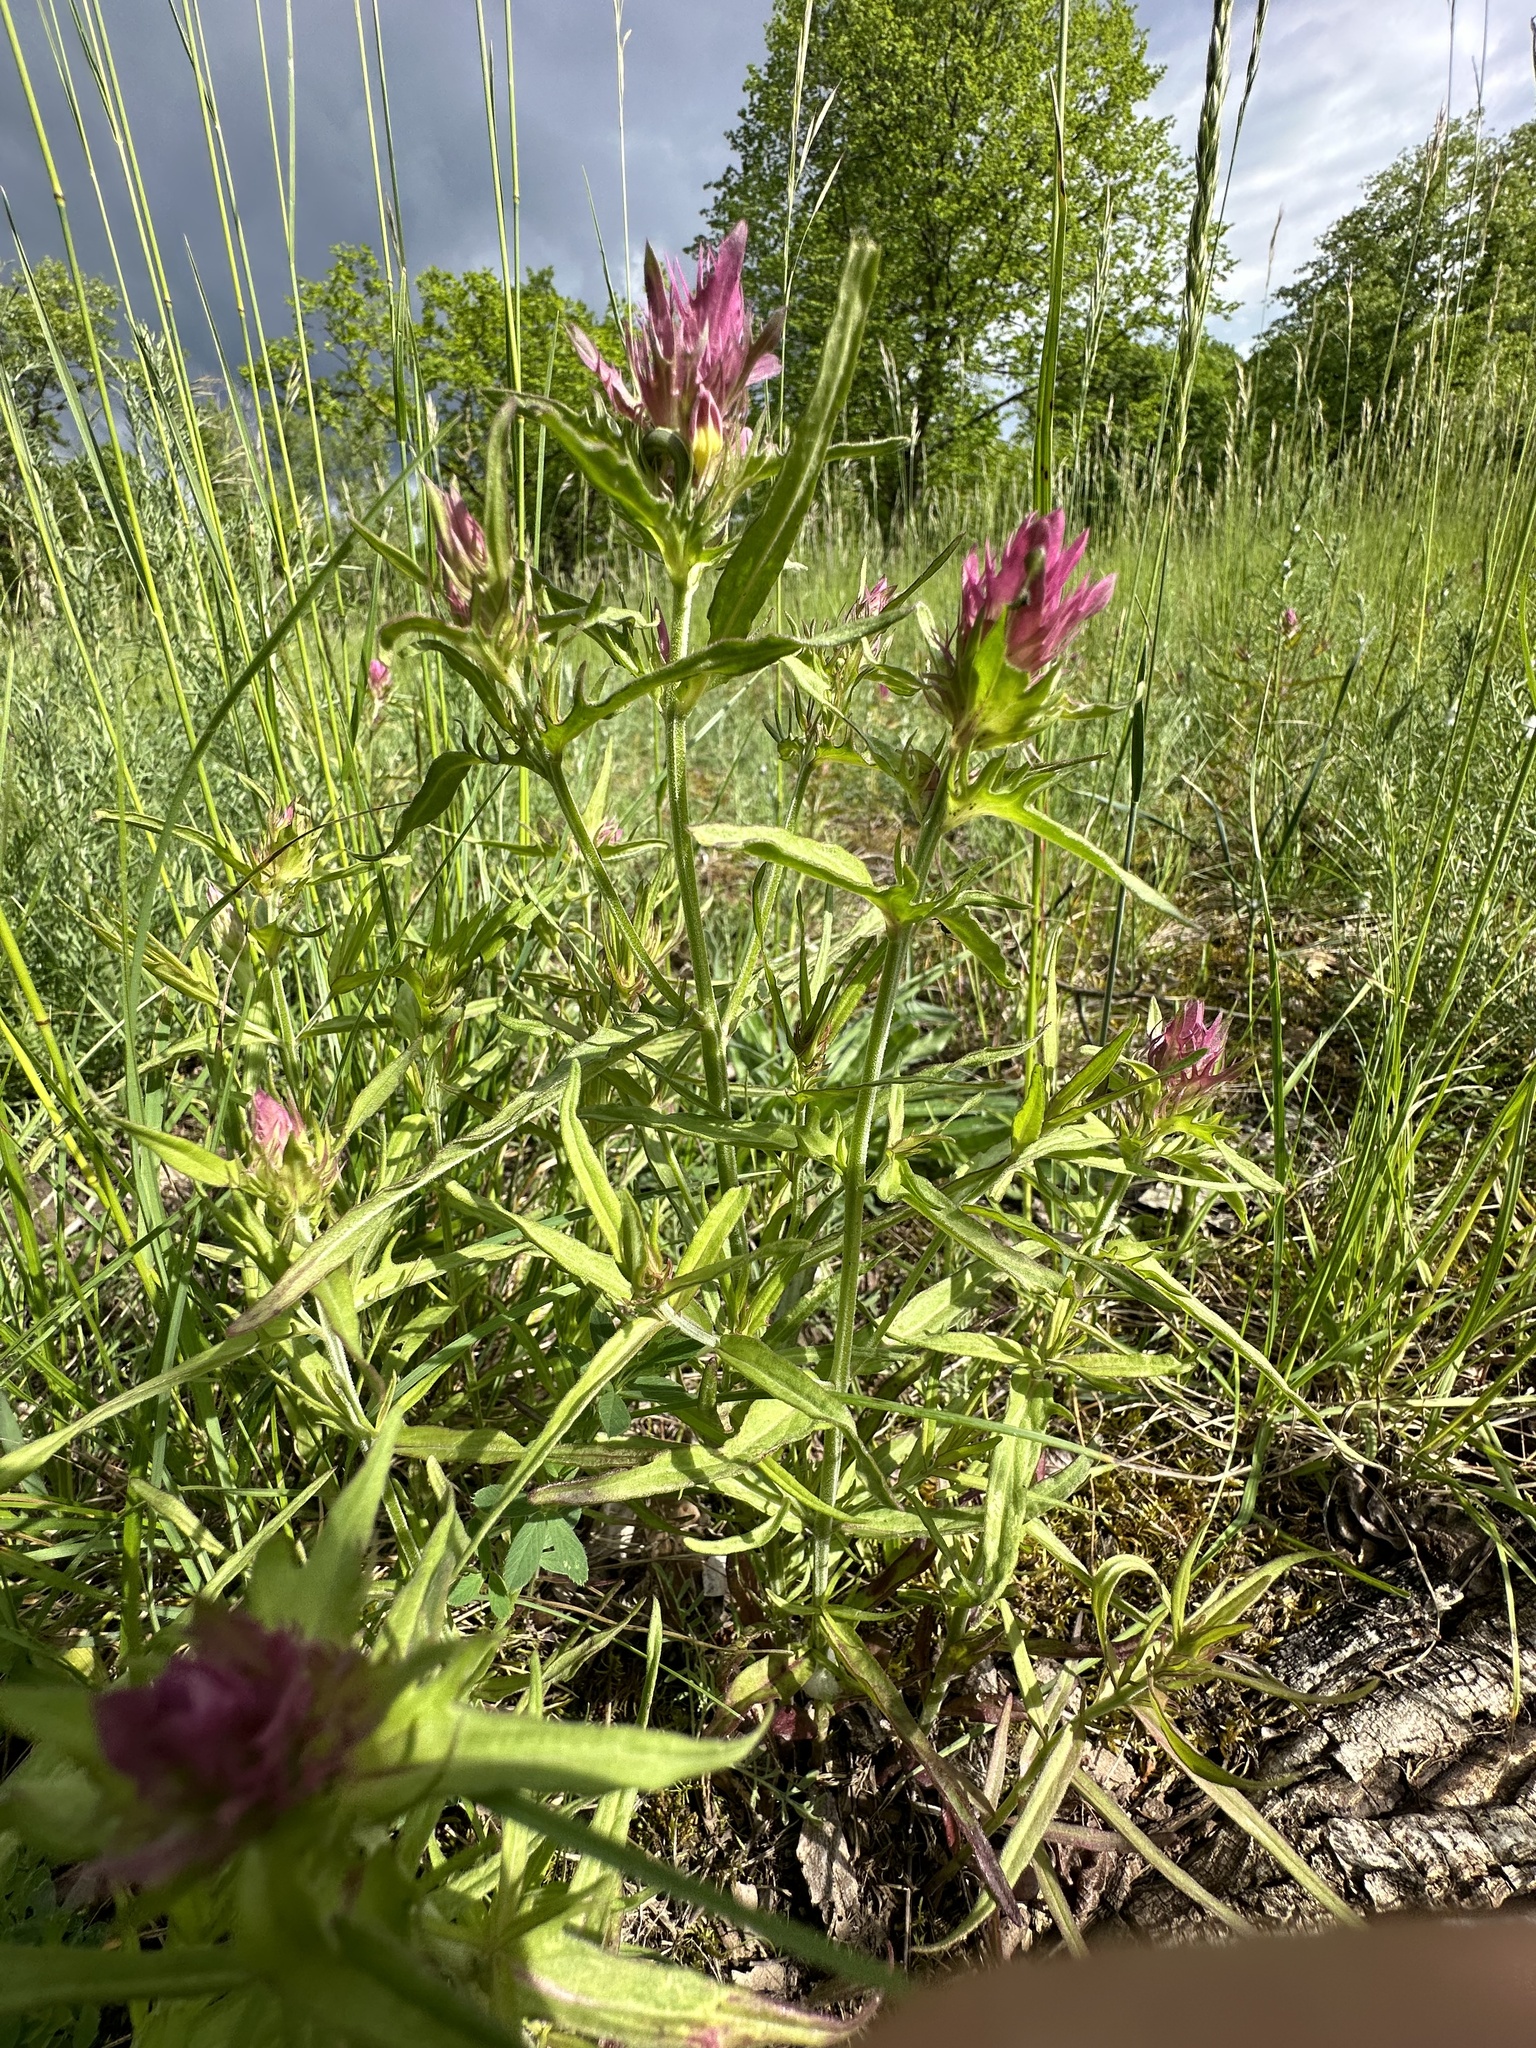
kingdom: Plantae
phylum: Tracheophyta
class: Magnoliopsida
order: Lamiales
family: Orobanchaceae
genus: Melampyrum
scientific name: Melampyrum arvense
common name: Field cow-wheat
